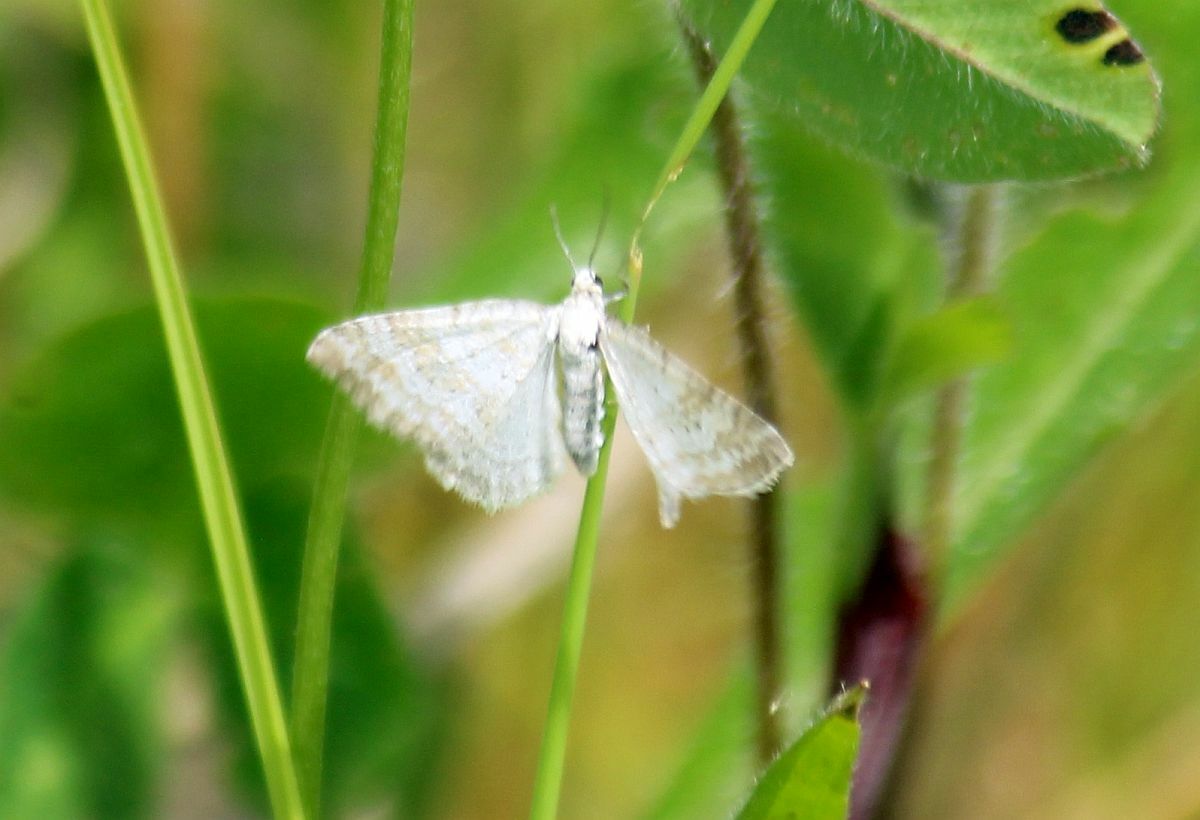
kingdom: Animalia
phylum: Arthropoda
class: Insecta
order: Lepidoptera
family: Geometridae
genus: Perizoma
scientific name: Perizoma albulata
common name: Grass rivulet
